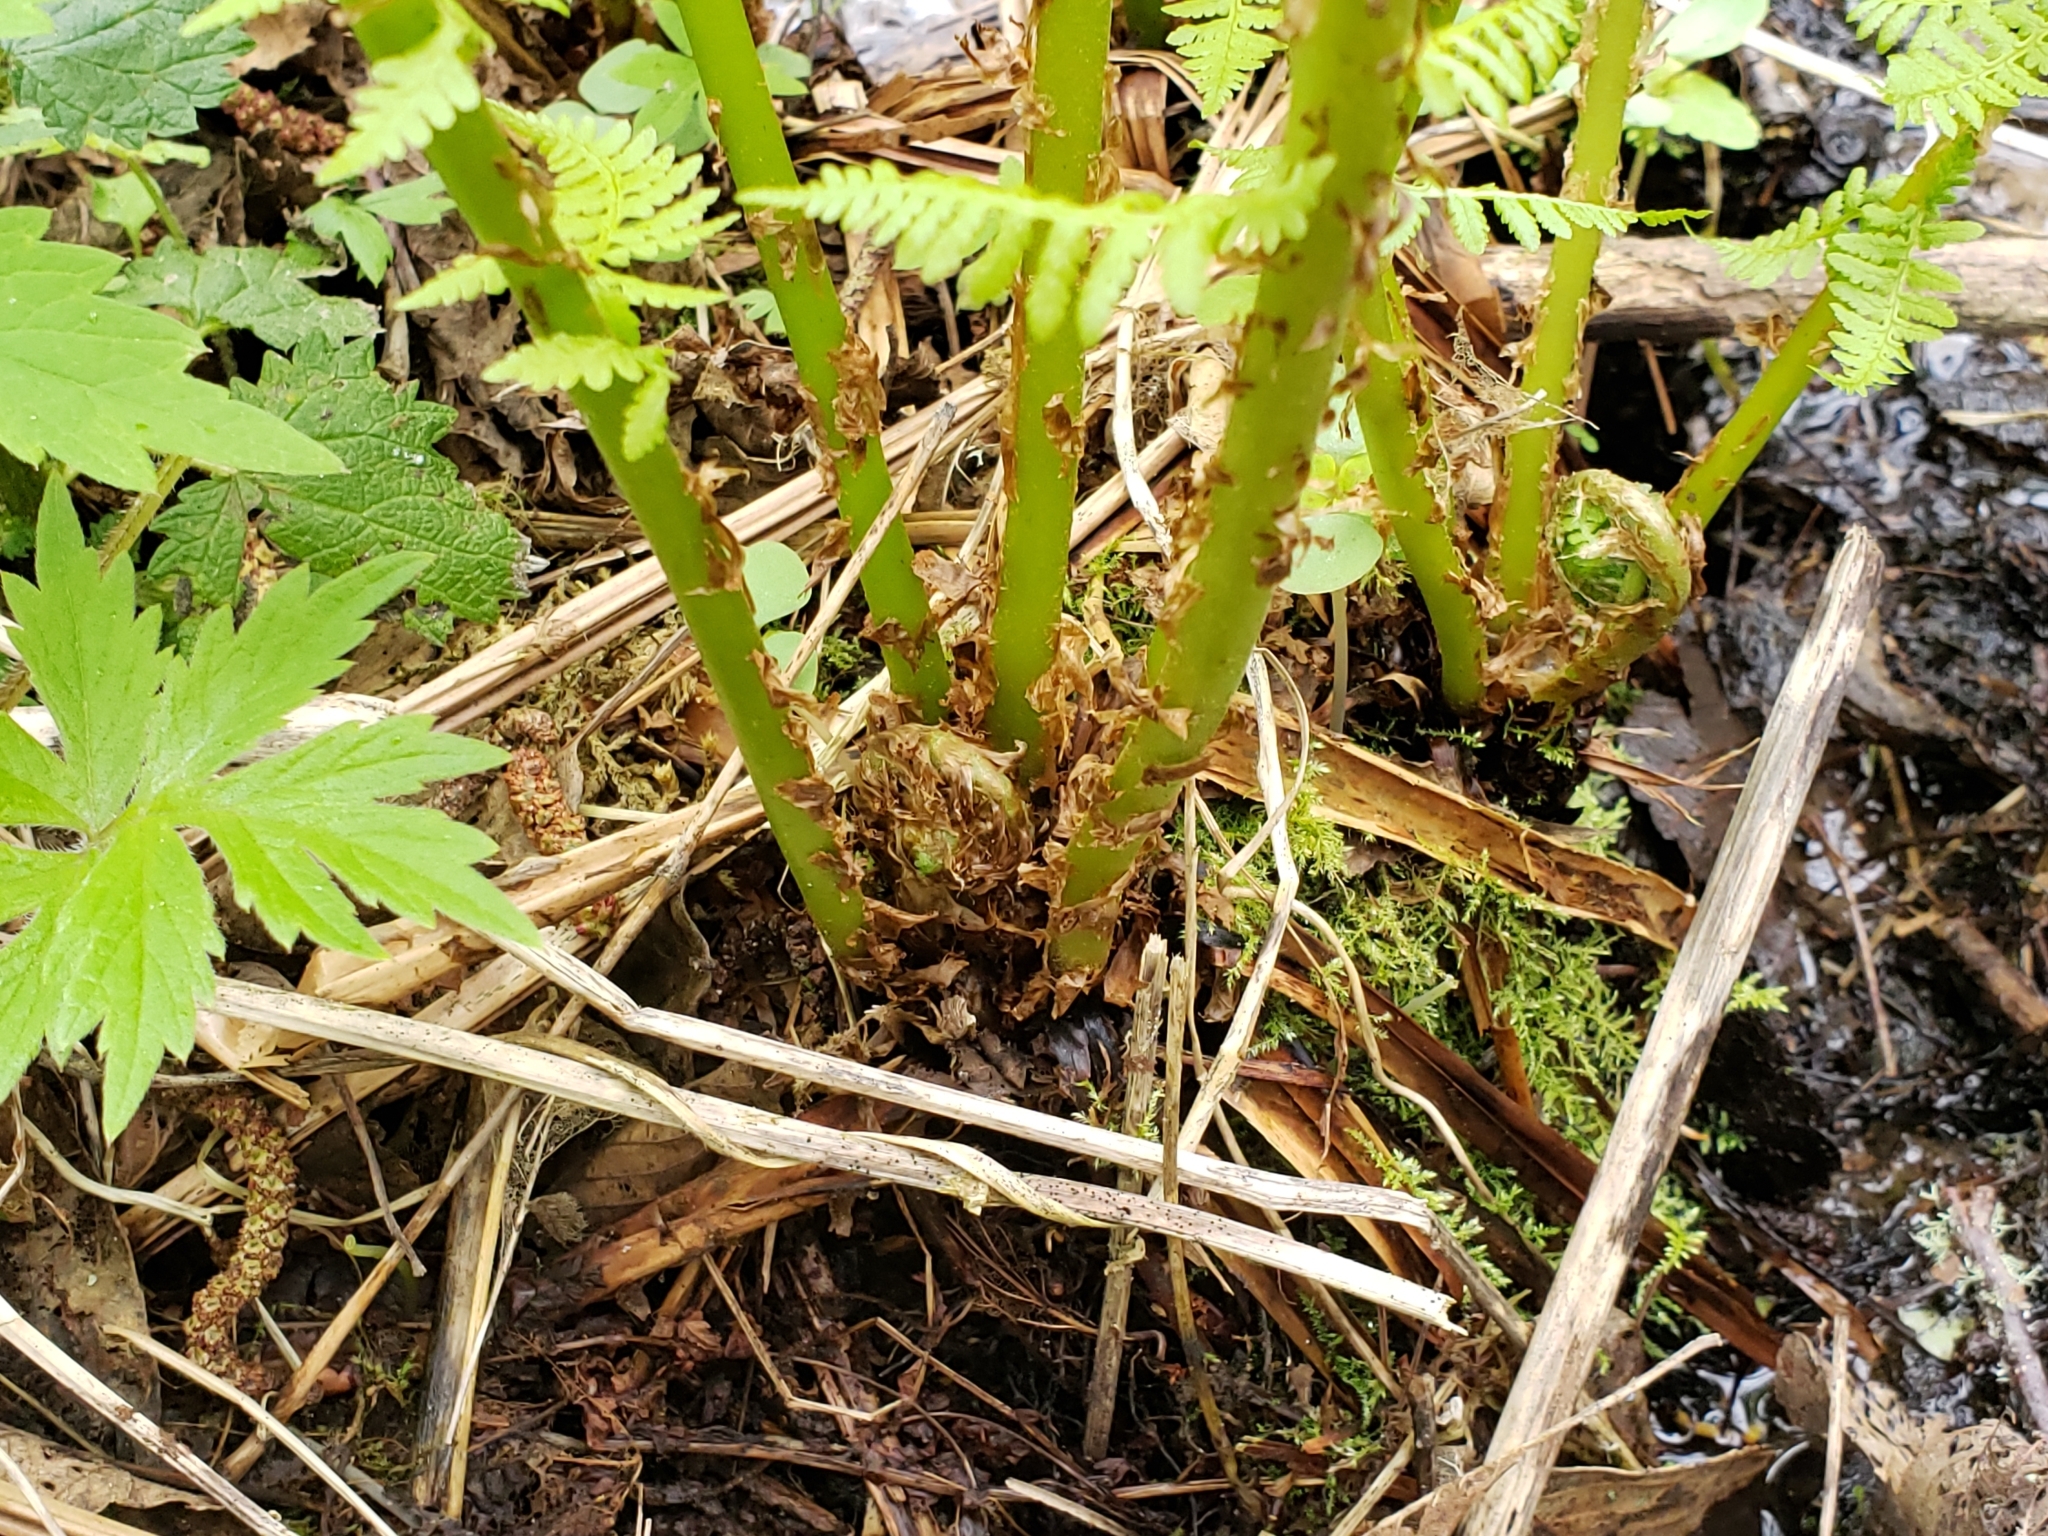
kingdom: Plantae
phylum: Tracheophyta
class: Polypodiopsida
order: Polypodiales
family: Athyriaceae
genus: Athyrium
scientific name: Athyrium filix-femina
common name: Lady fern
